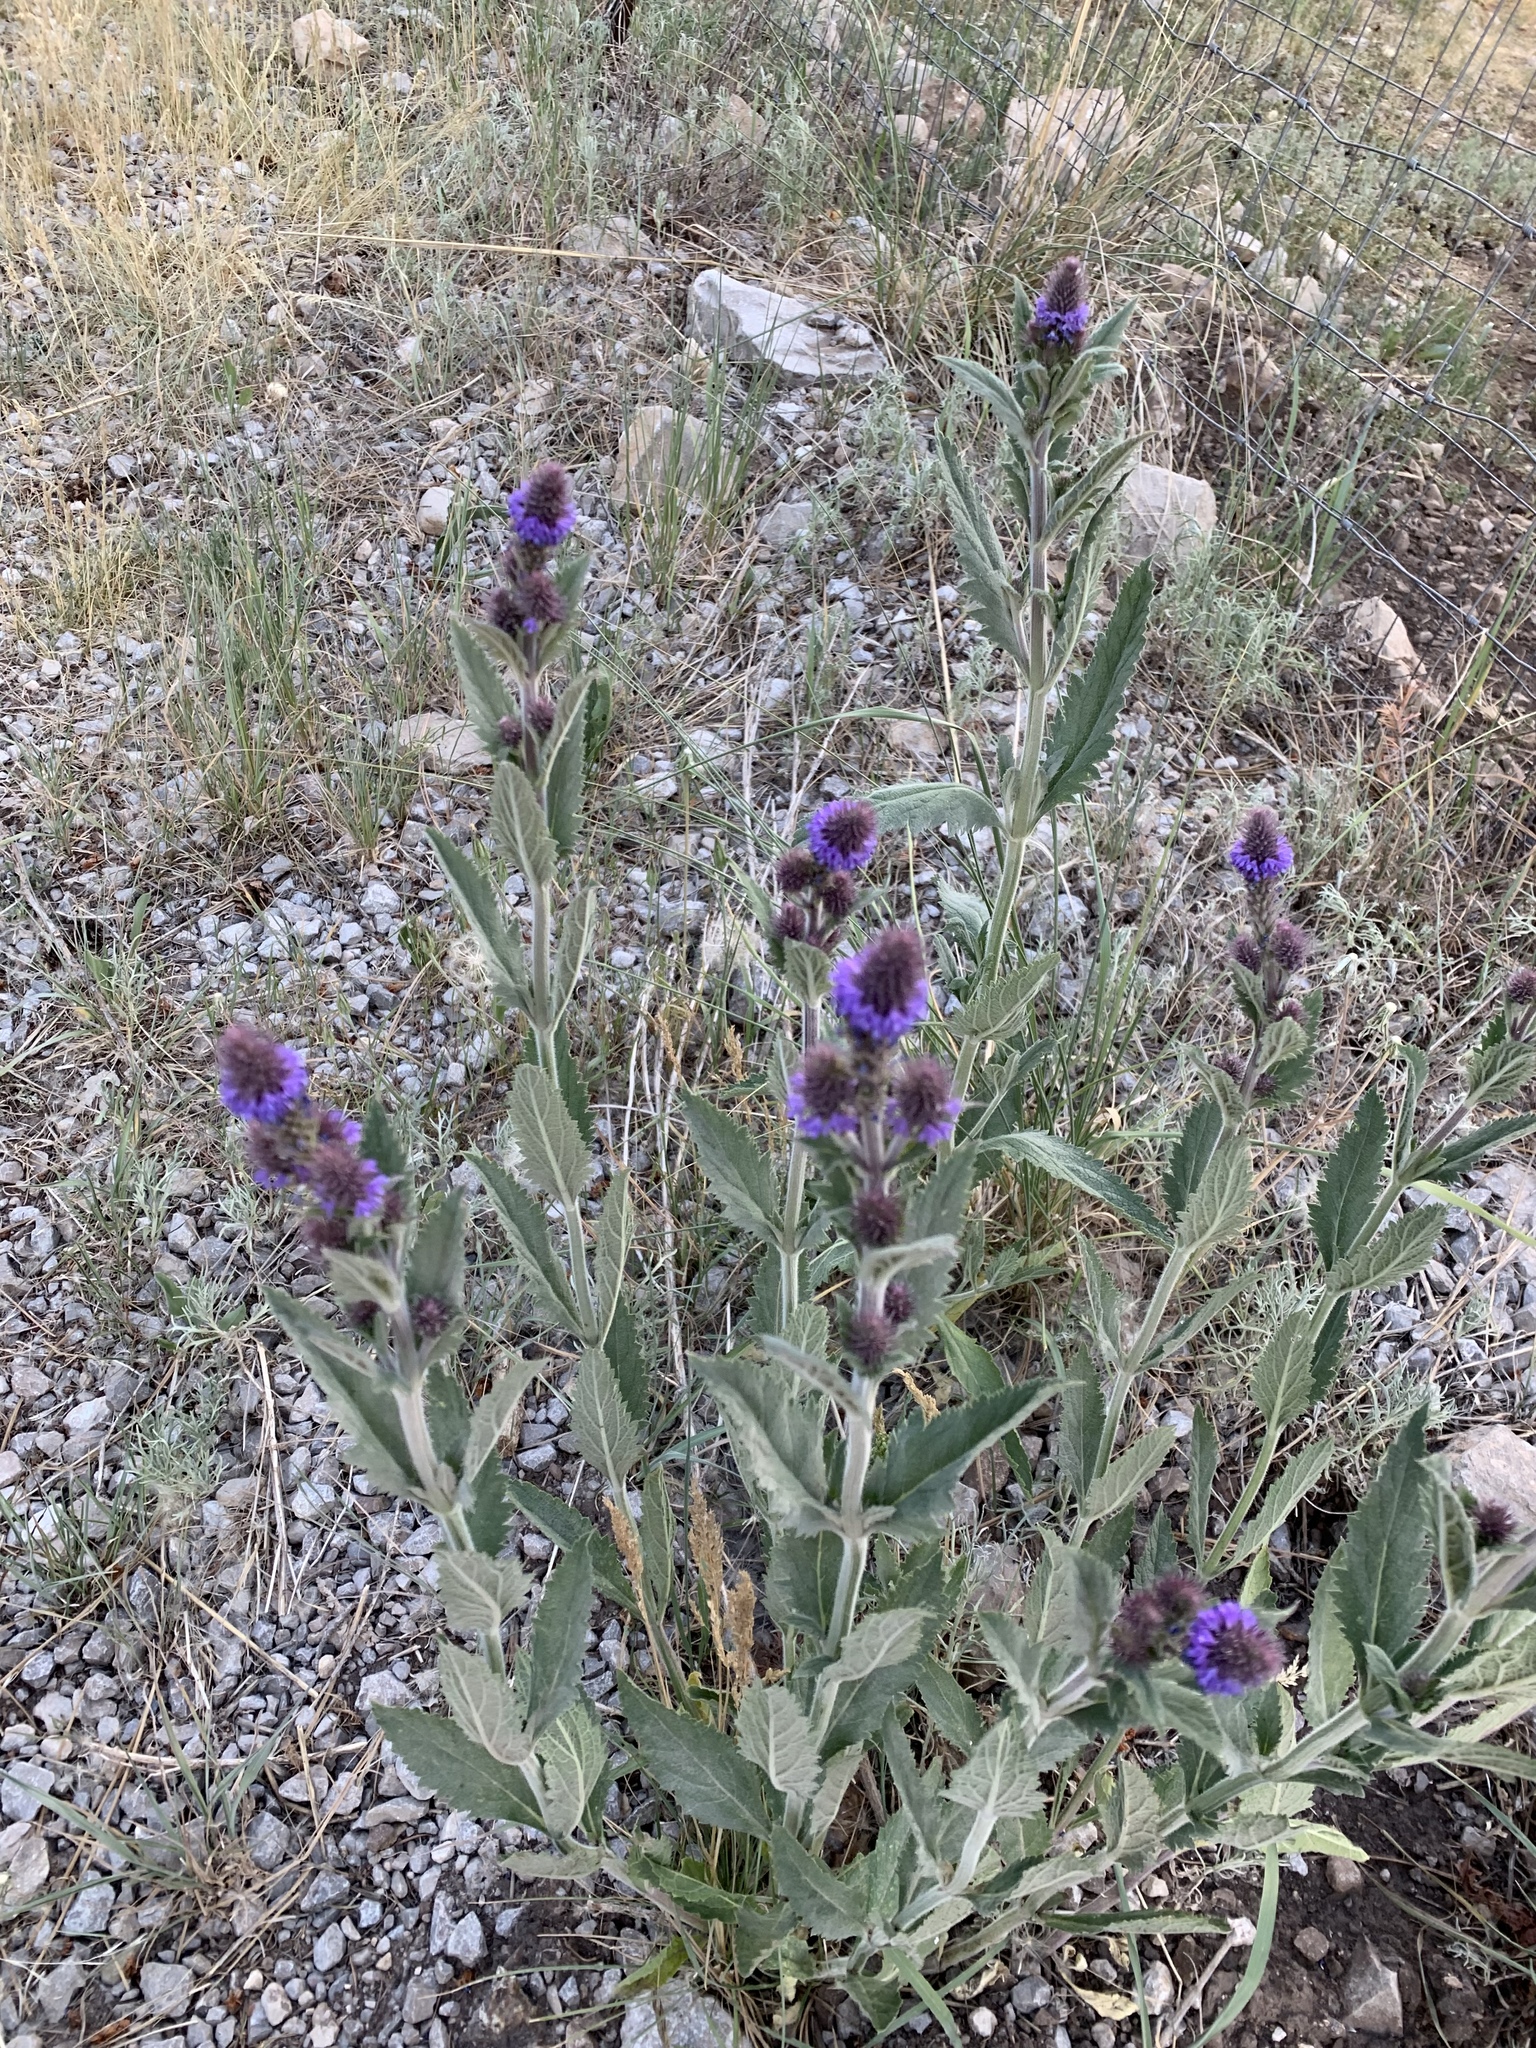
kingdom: Plantae
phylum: Tracheophyta
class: Magnoliopsida
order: Lamiales
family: Verbenaceae
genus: Verbena
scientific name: Verbena macdougalii
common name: New mexico vervain
